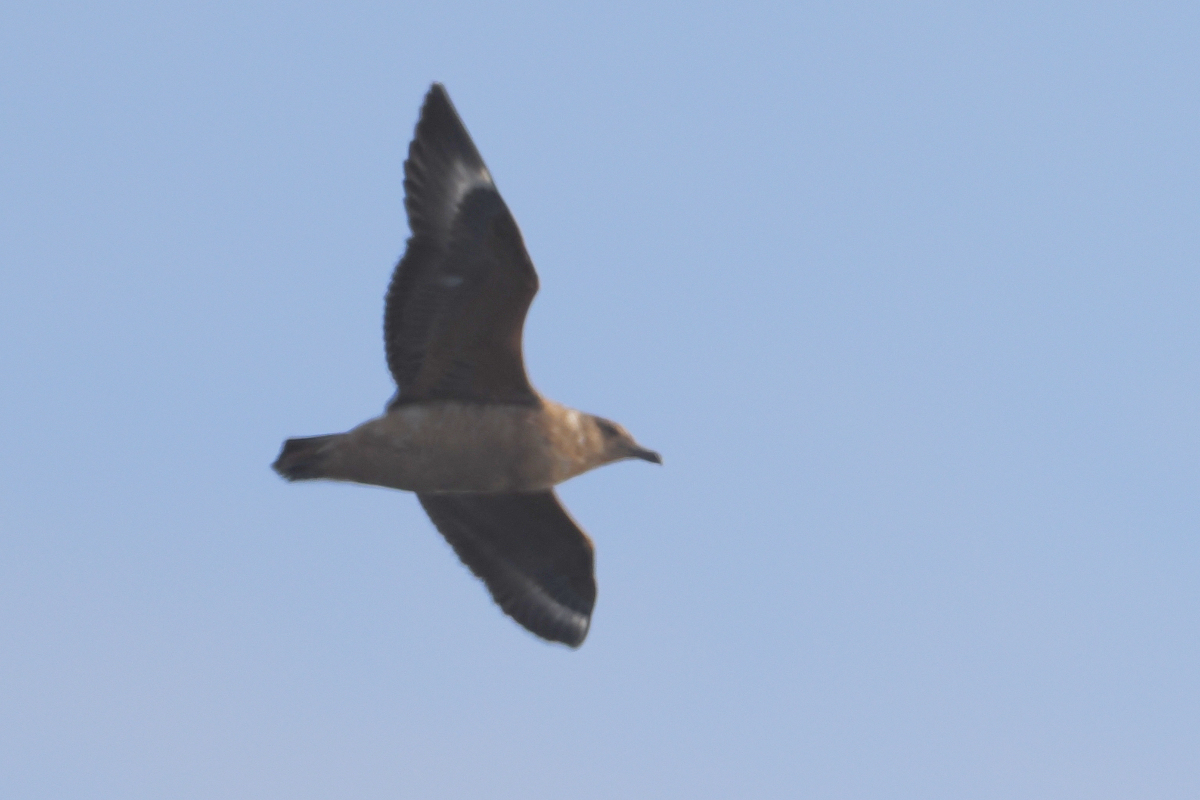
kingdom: Animalia
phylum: Chordata
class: Aves
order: Charadriiformes
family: Stercorariidae
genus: Stercorarius
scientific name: Stercorarius antarcticus
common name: Brown skua
